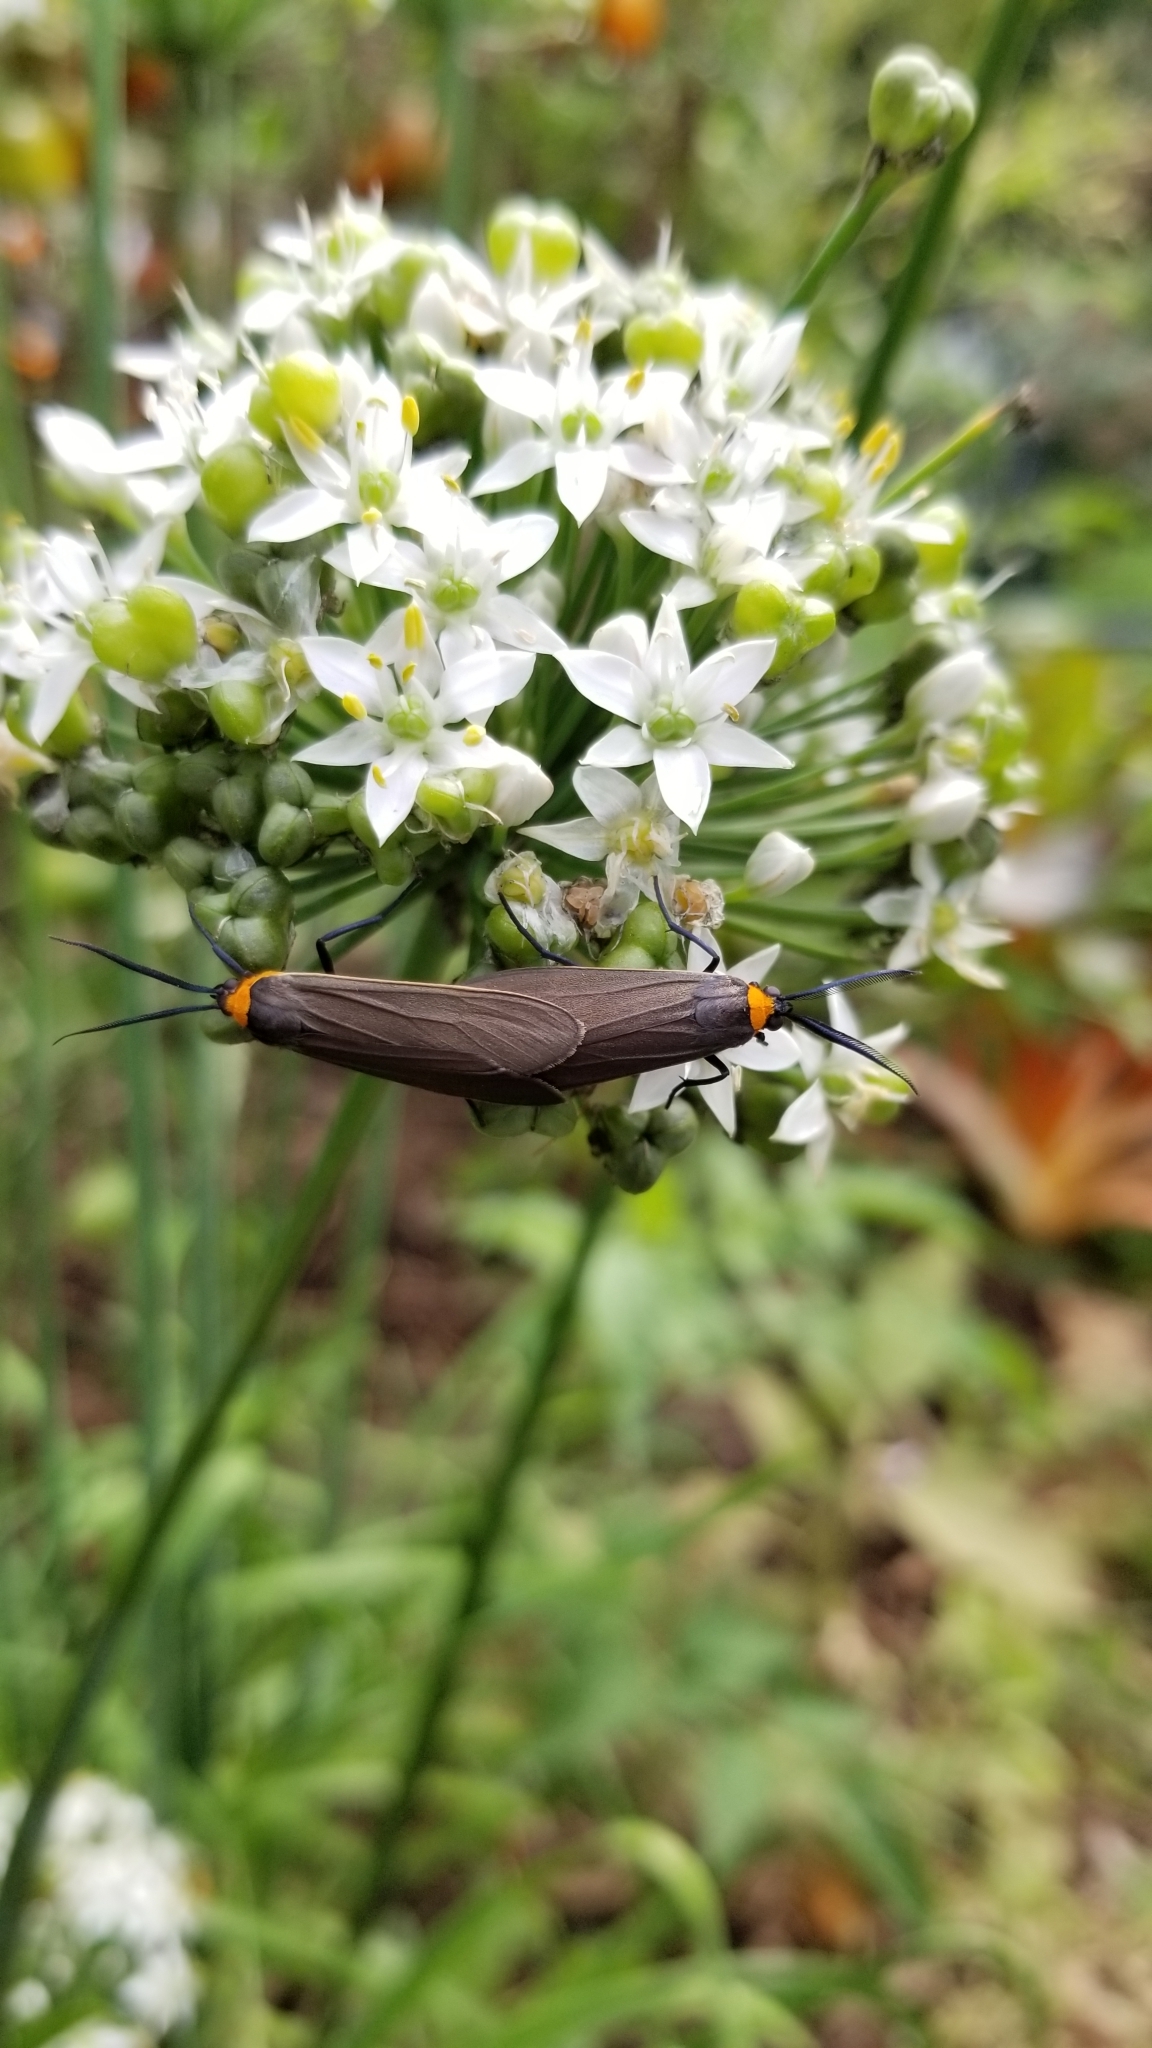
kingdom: Animalia
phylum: Arthropoda
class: Insecta
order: Lepidoptera
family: Erebidae
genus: Cisseps
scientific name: Cisseps fulvicollis
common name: Yellow-collared scape moth
